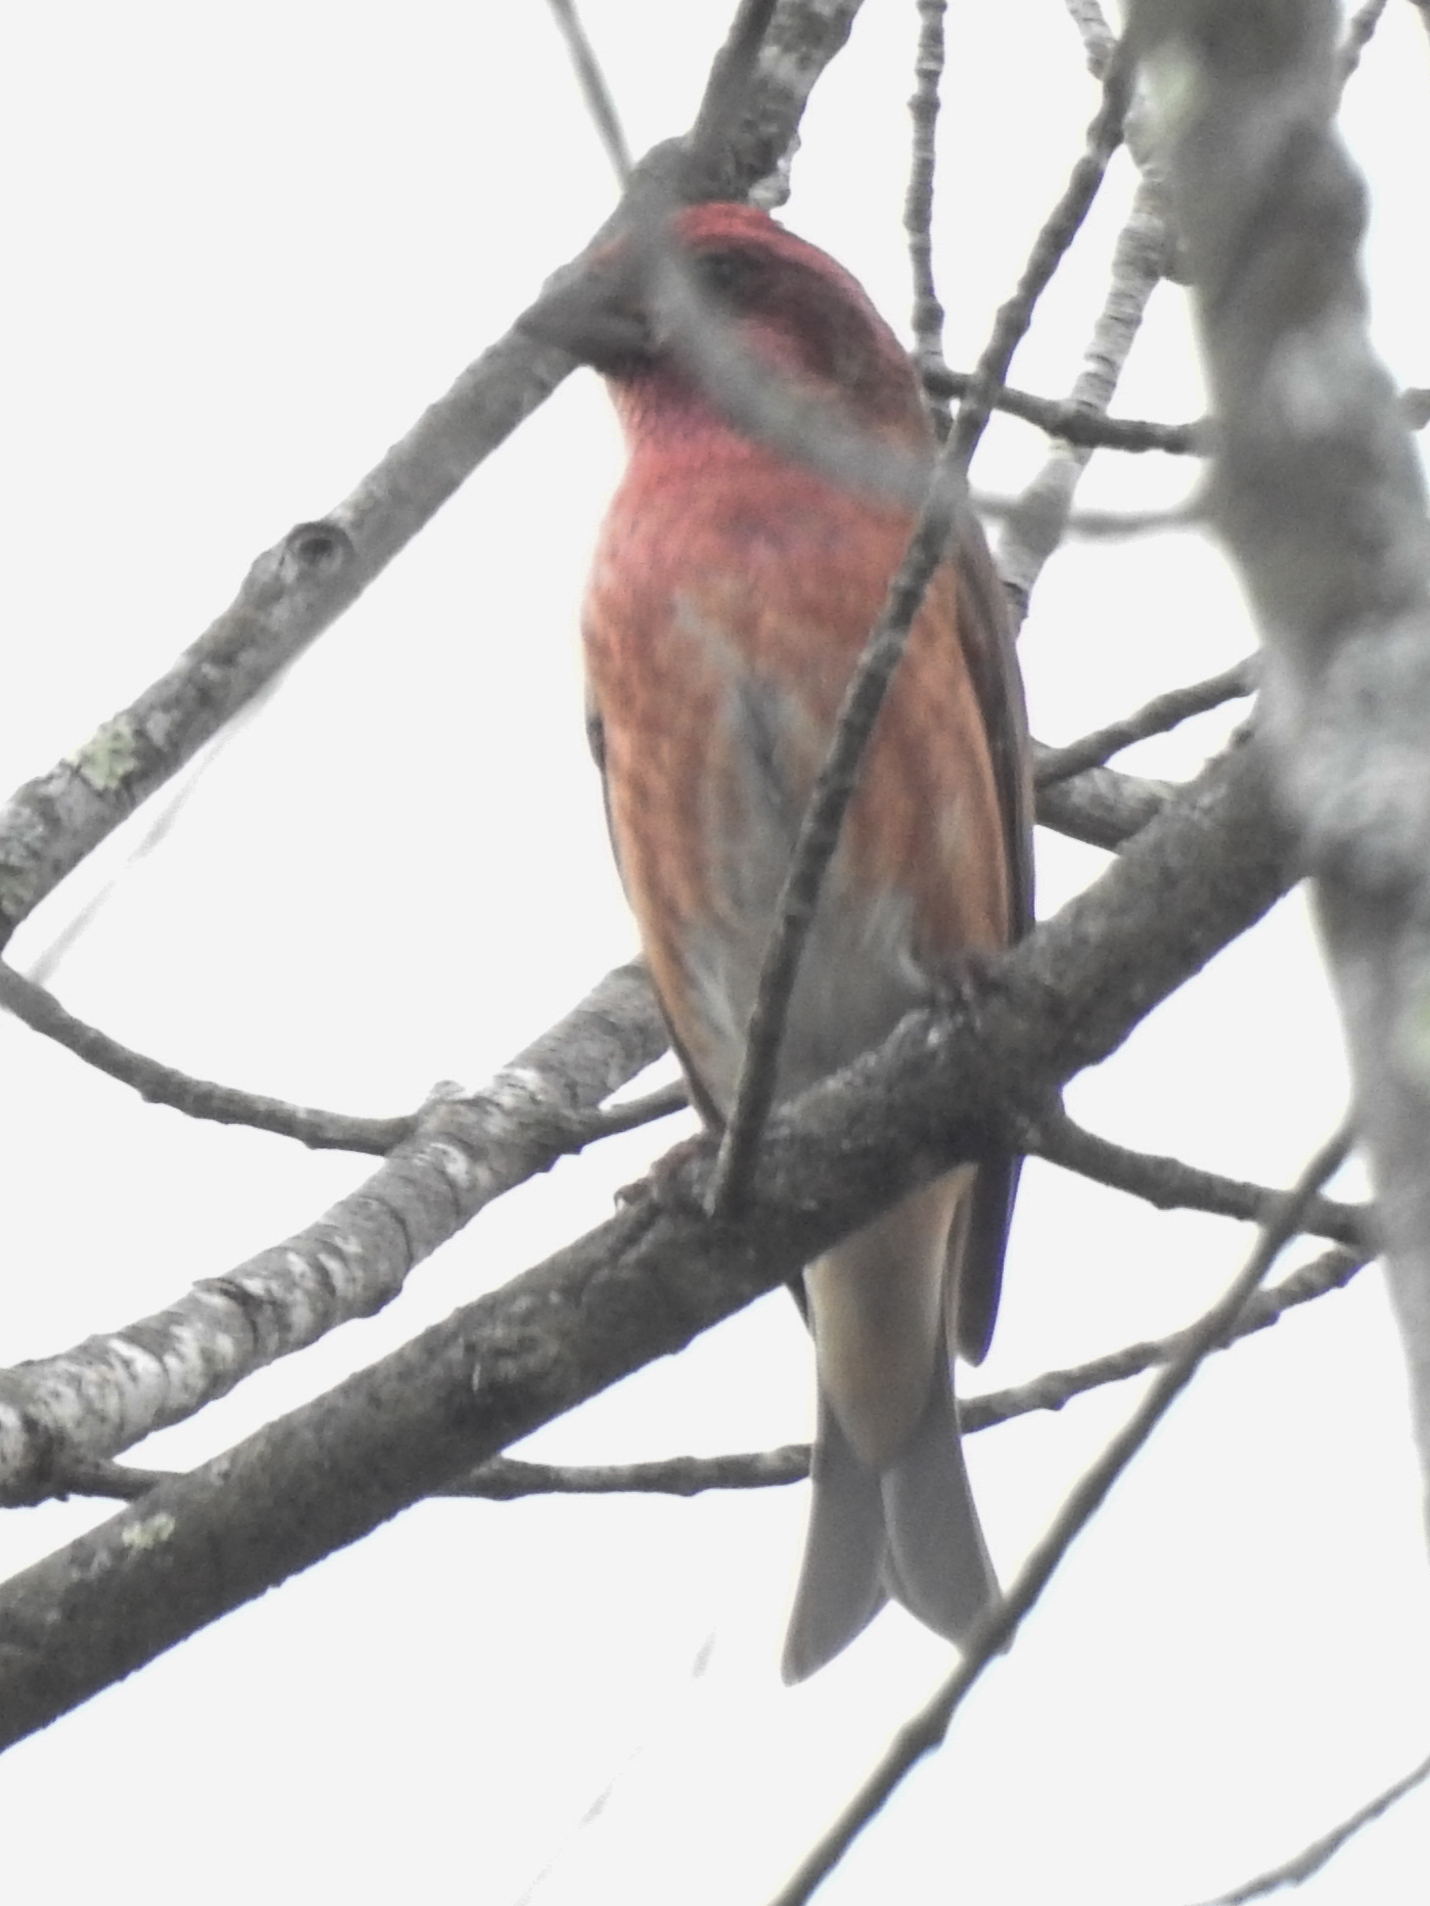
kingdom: Animalia
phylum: Chordata
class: Aves
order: Passeriformes
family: Fringillidae
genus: Haemorhous
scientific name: Haemorhous purpureus
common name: Purple finch
